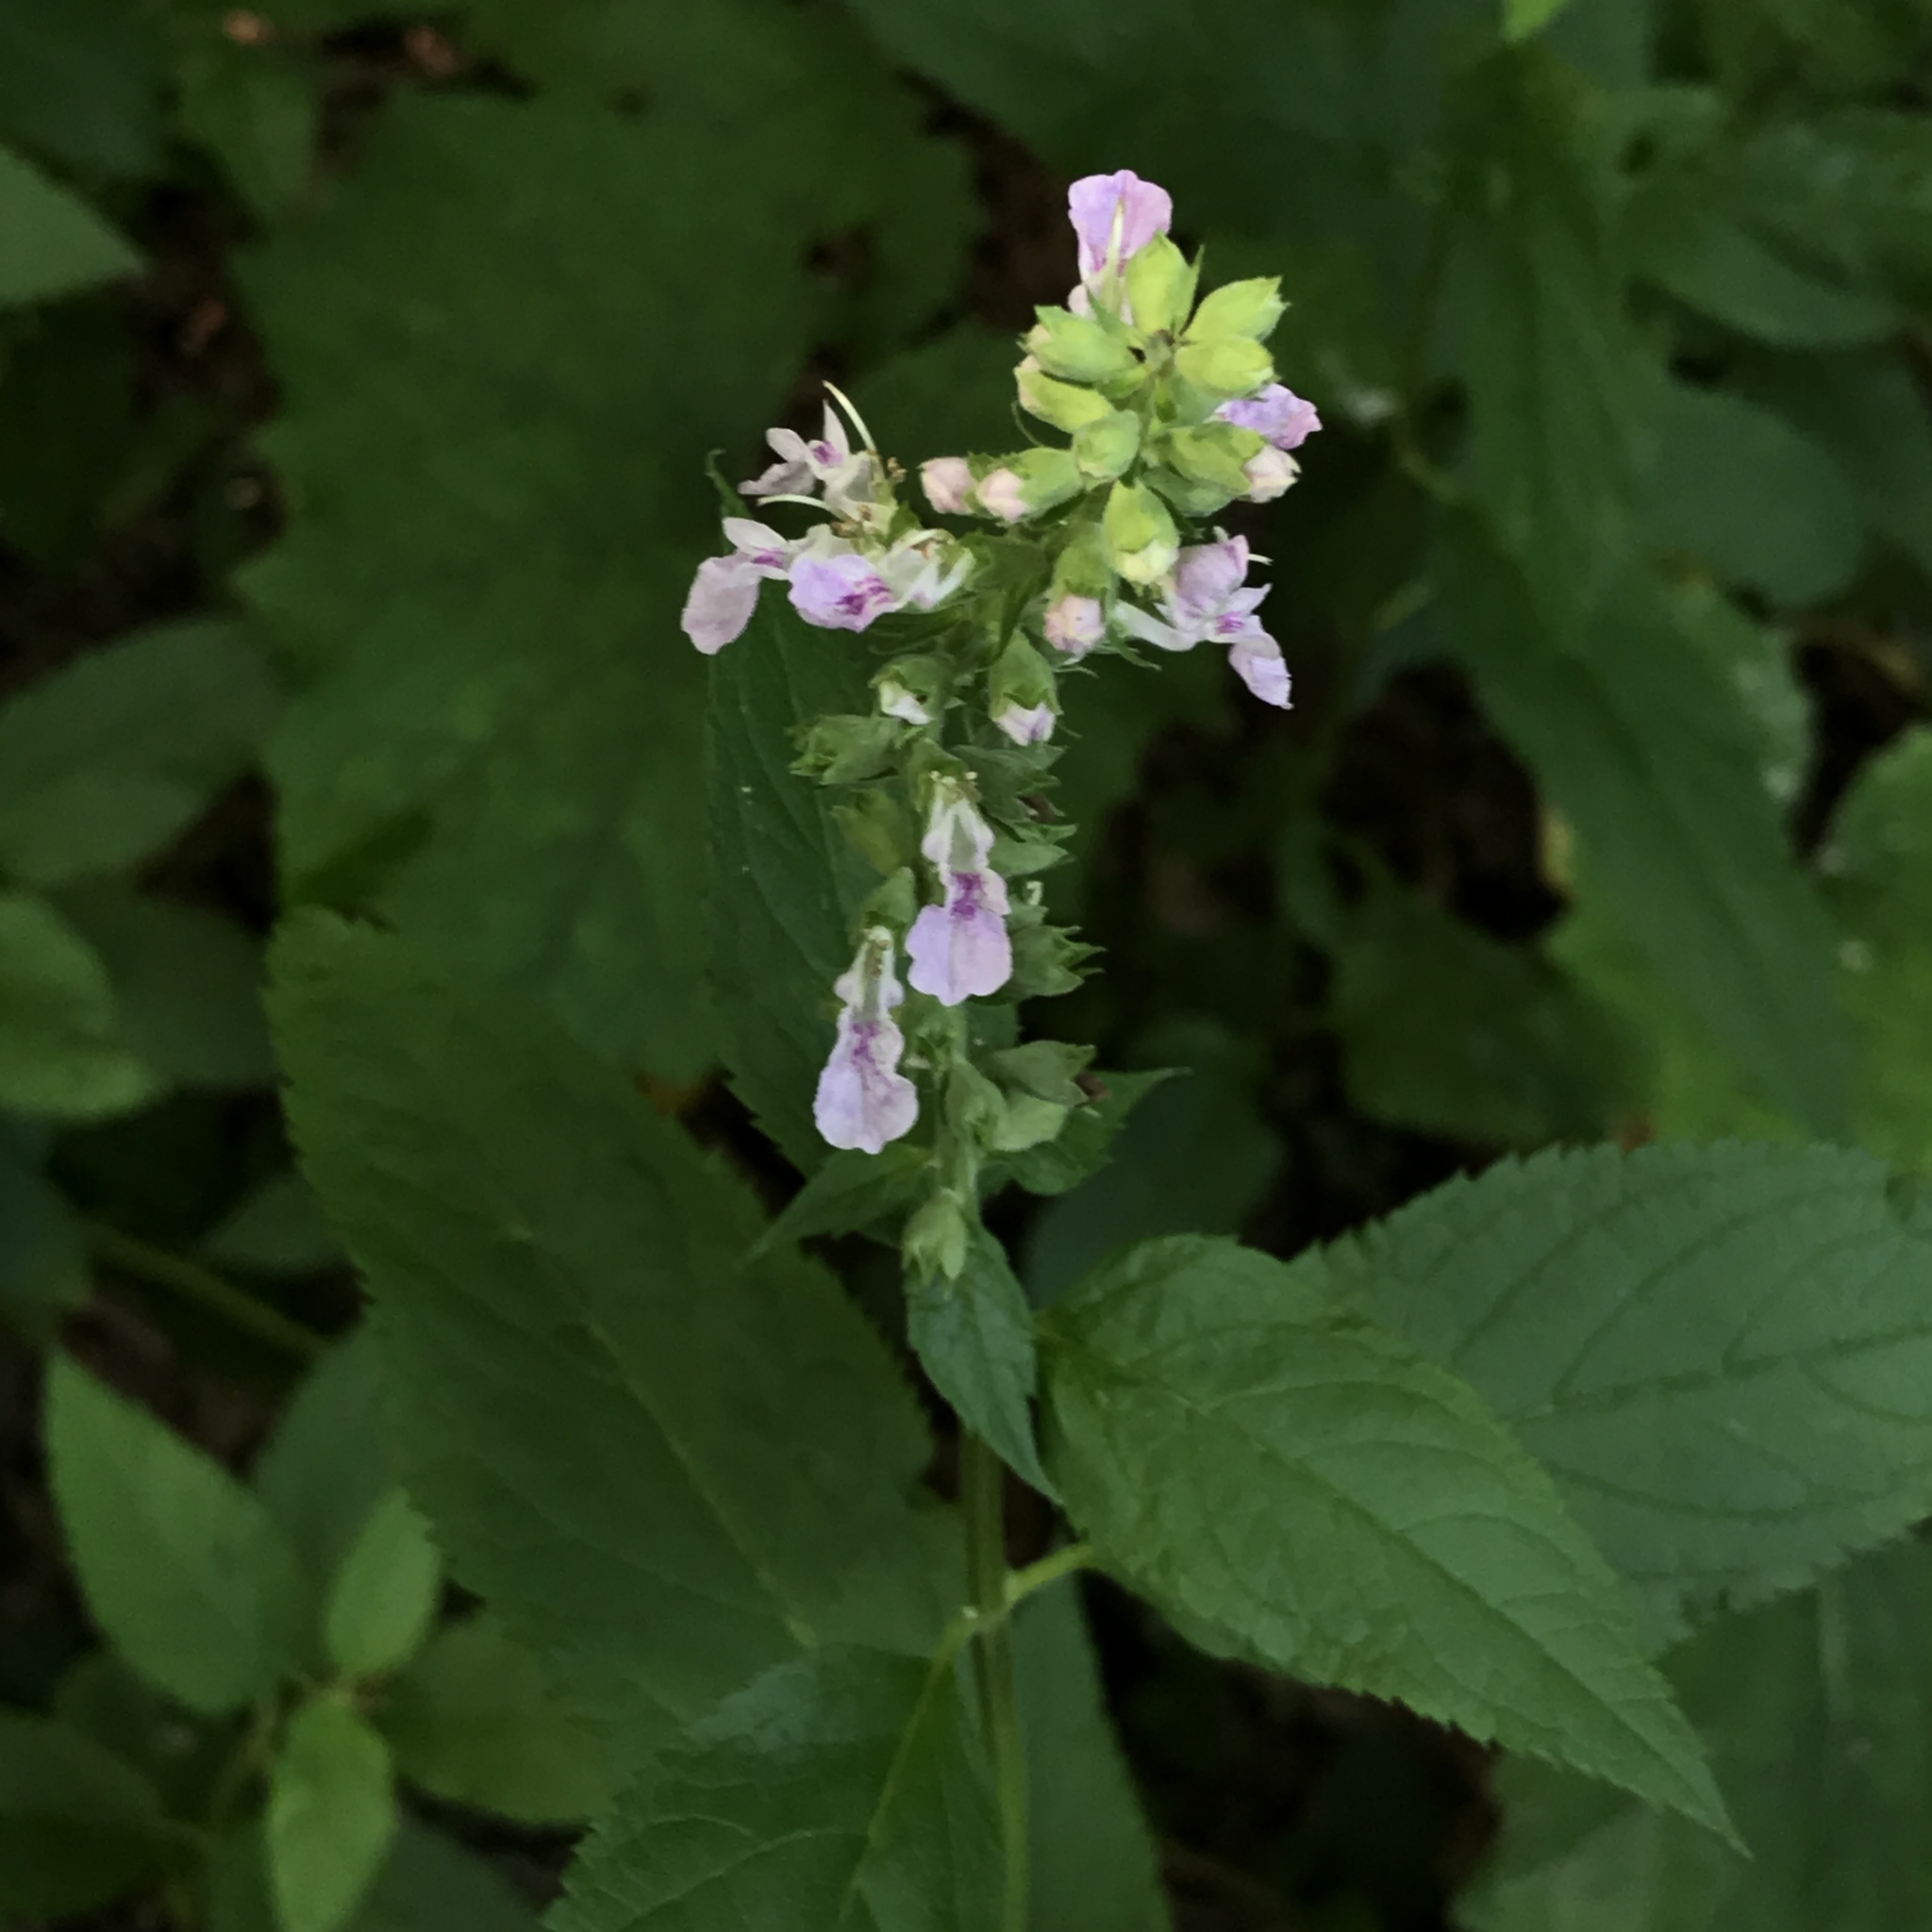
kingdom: Plantae
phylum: Tracheophyta
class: Magnoliopsida
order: Lamiales
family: Lamiaceae
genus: Teucrium
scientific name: Teucrium canadense
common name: American germander
